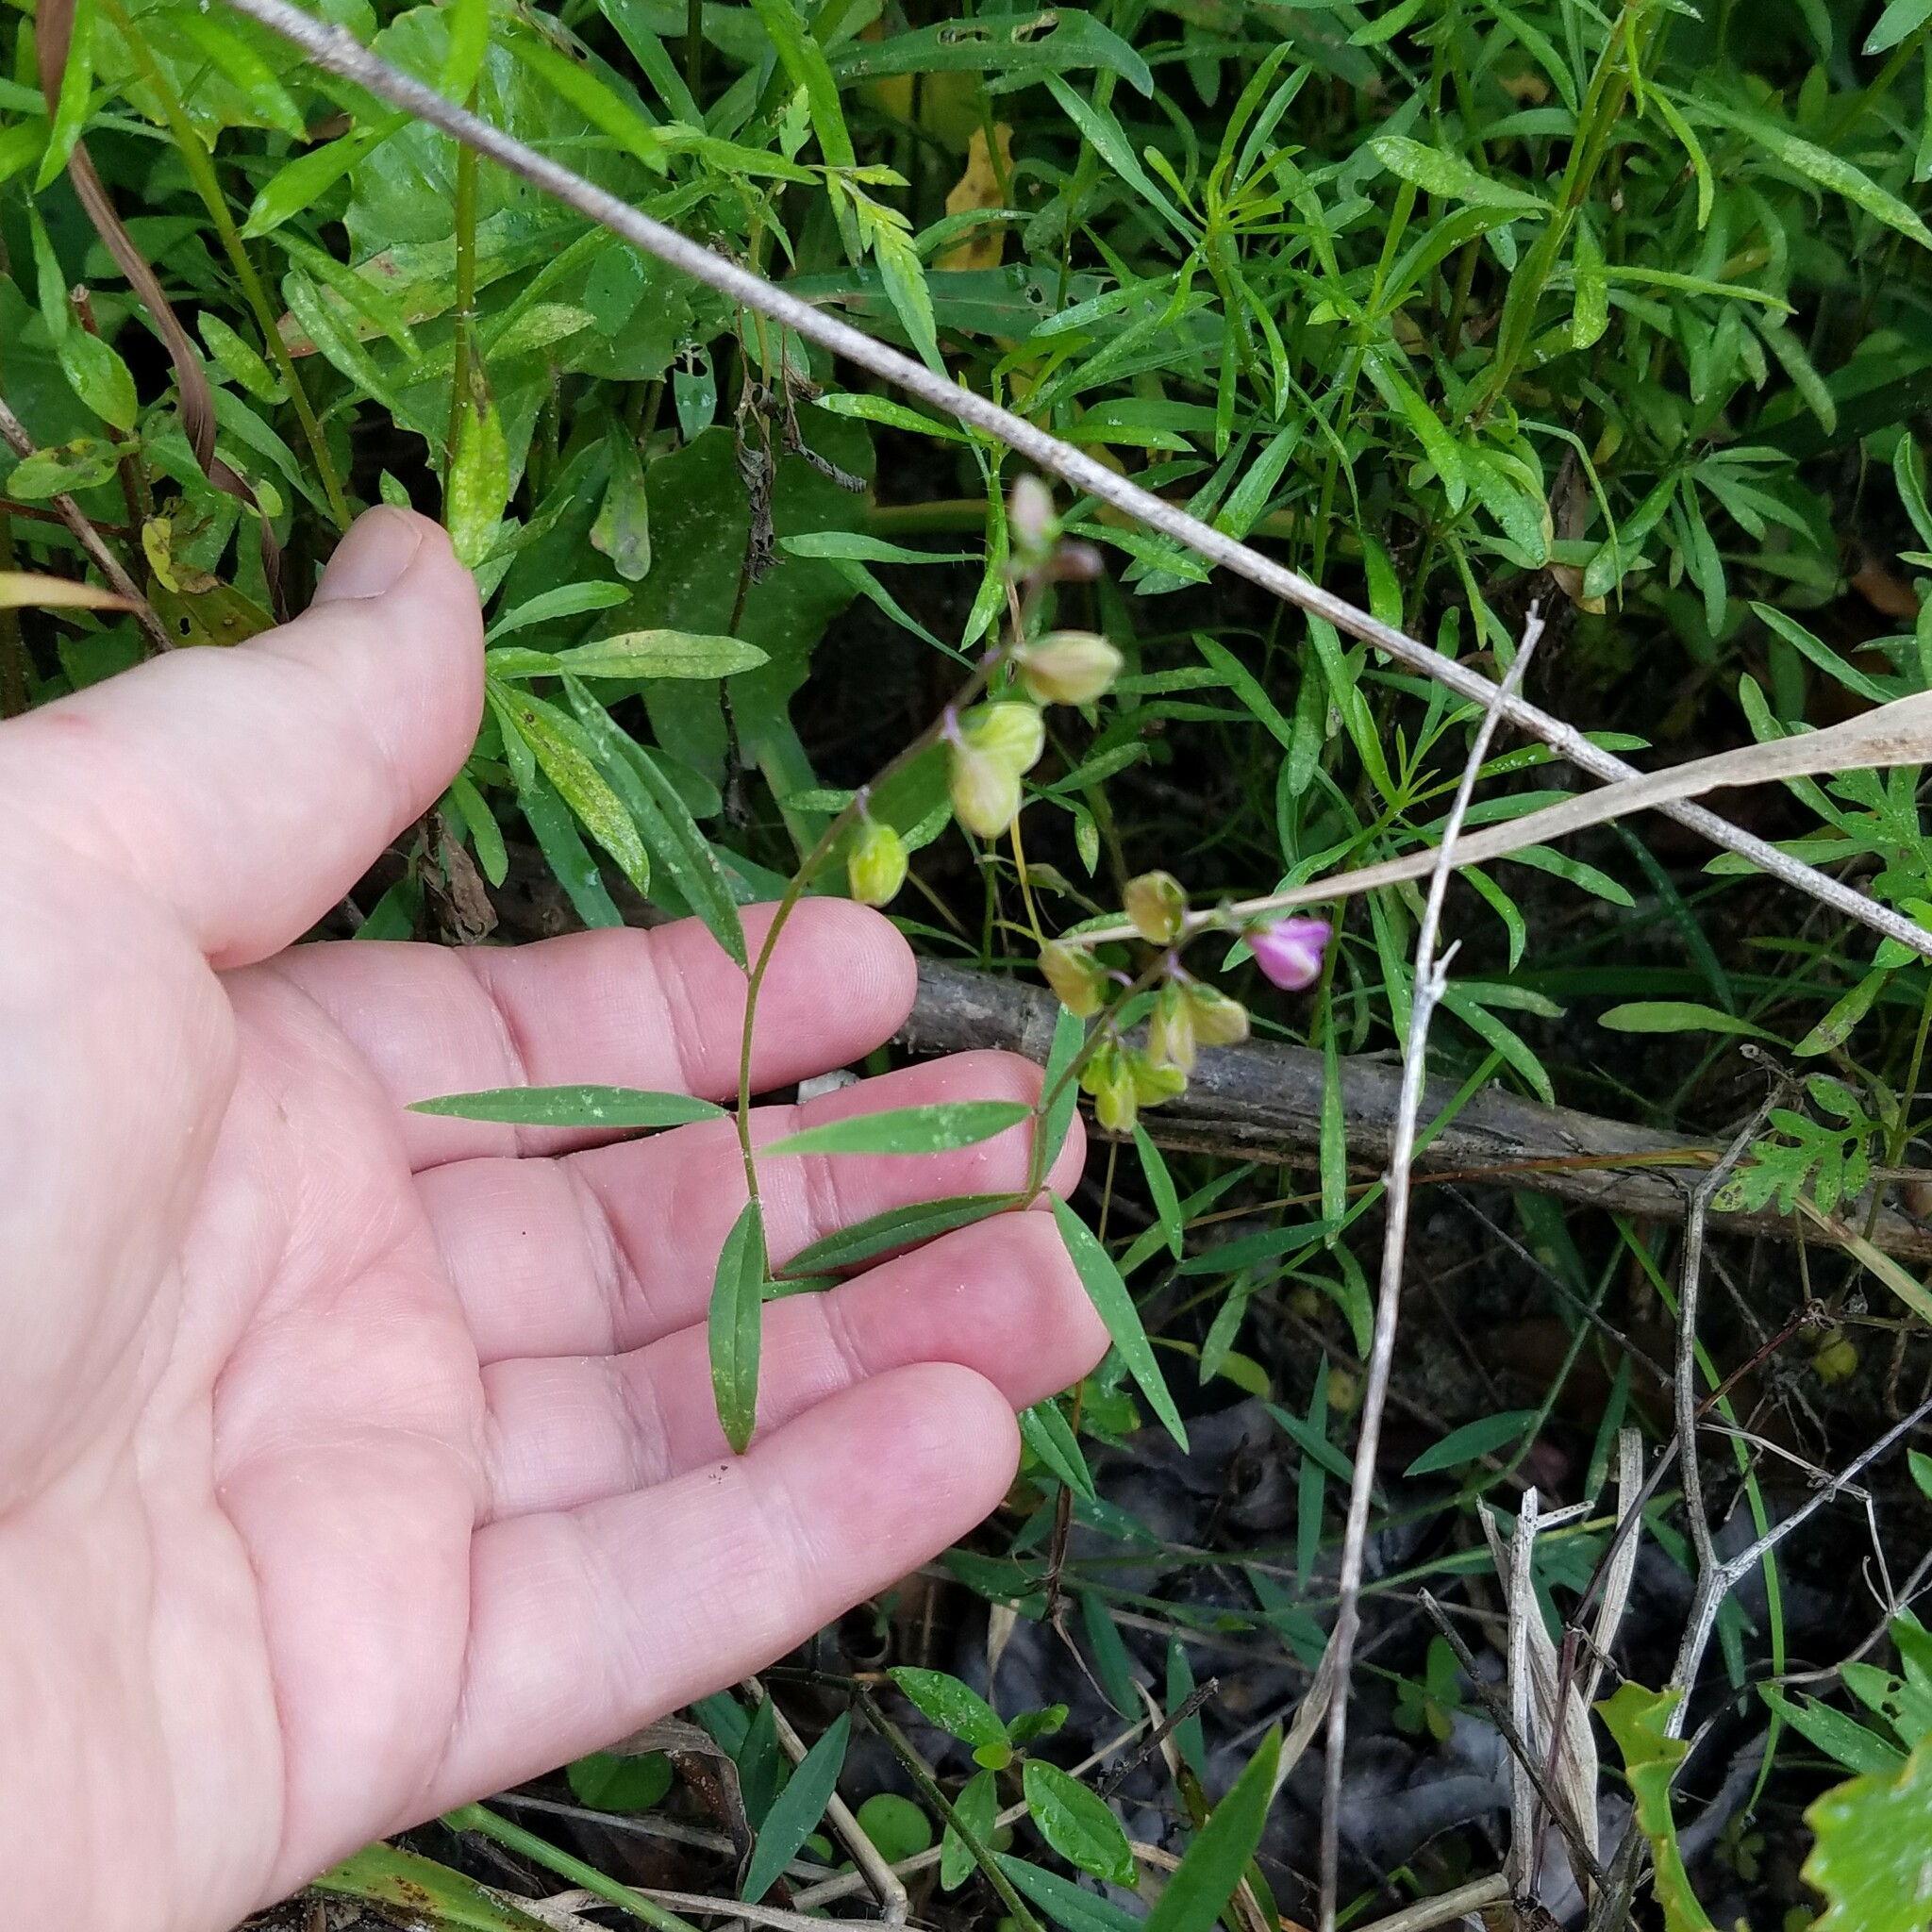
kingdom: Plantae
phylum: Tracheophyta
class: Magnoliopsida
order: Fabales
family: Polygalaceae
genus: Asemeia
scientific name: Asemeia grandiflora
